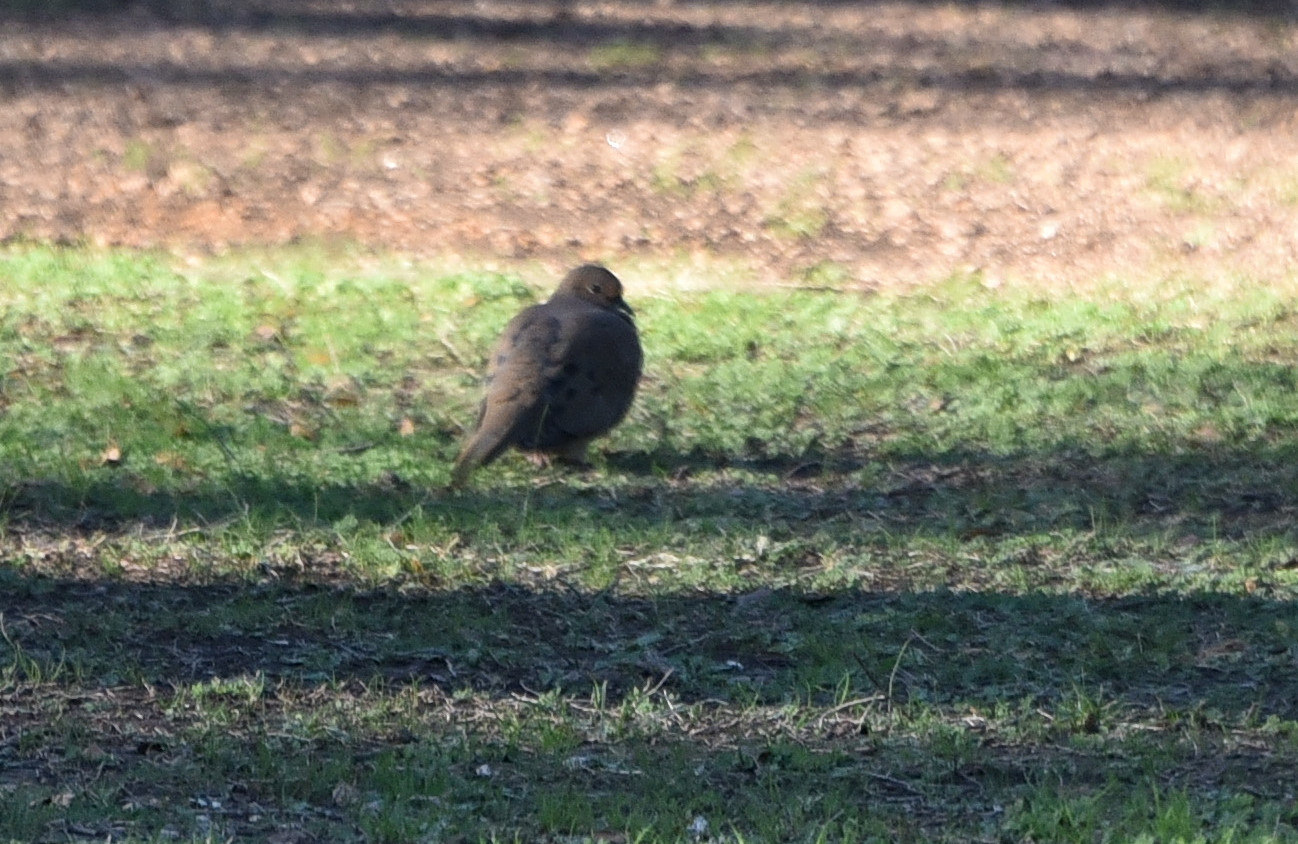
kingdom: Animalia
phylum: Chordata
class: Aves
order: Columbiformes
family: Columbidae
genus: Zenaida
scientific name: Zenaida macroura
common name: Mourning dove
